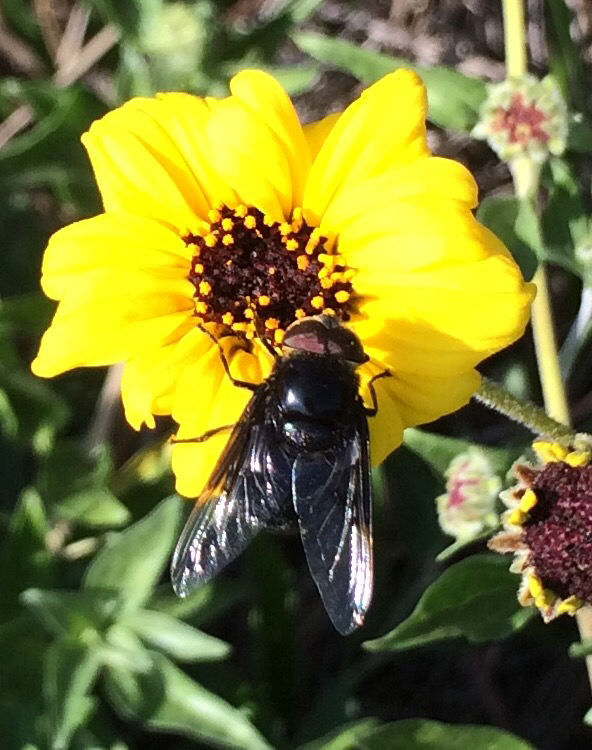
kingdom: Animalia
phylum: Arthropoda
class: Insecta
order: Diptera
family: Syrphidae
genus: Copestylum
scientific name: Copestylum mexicanum
